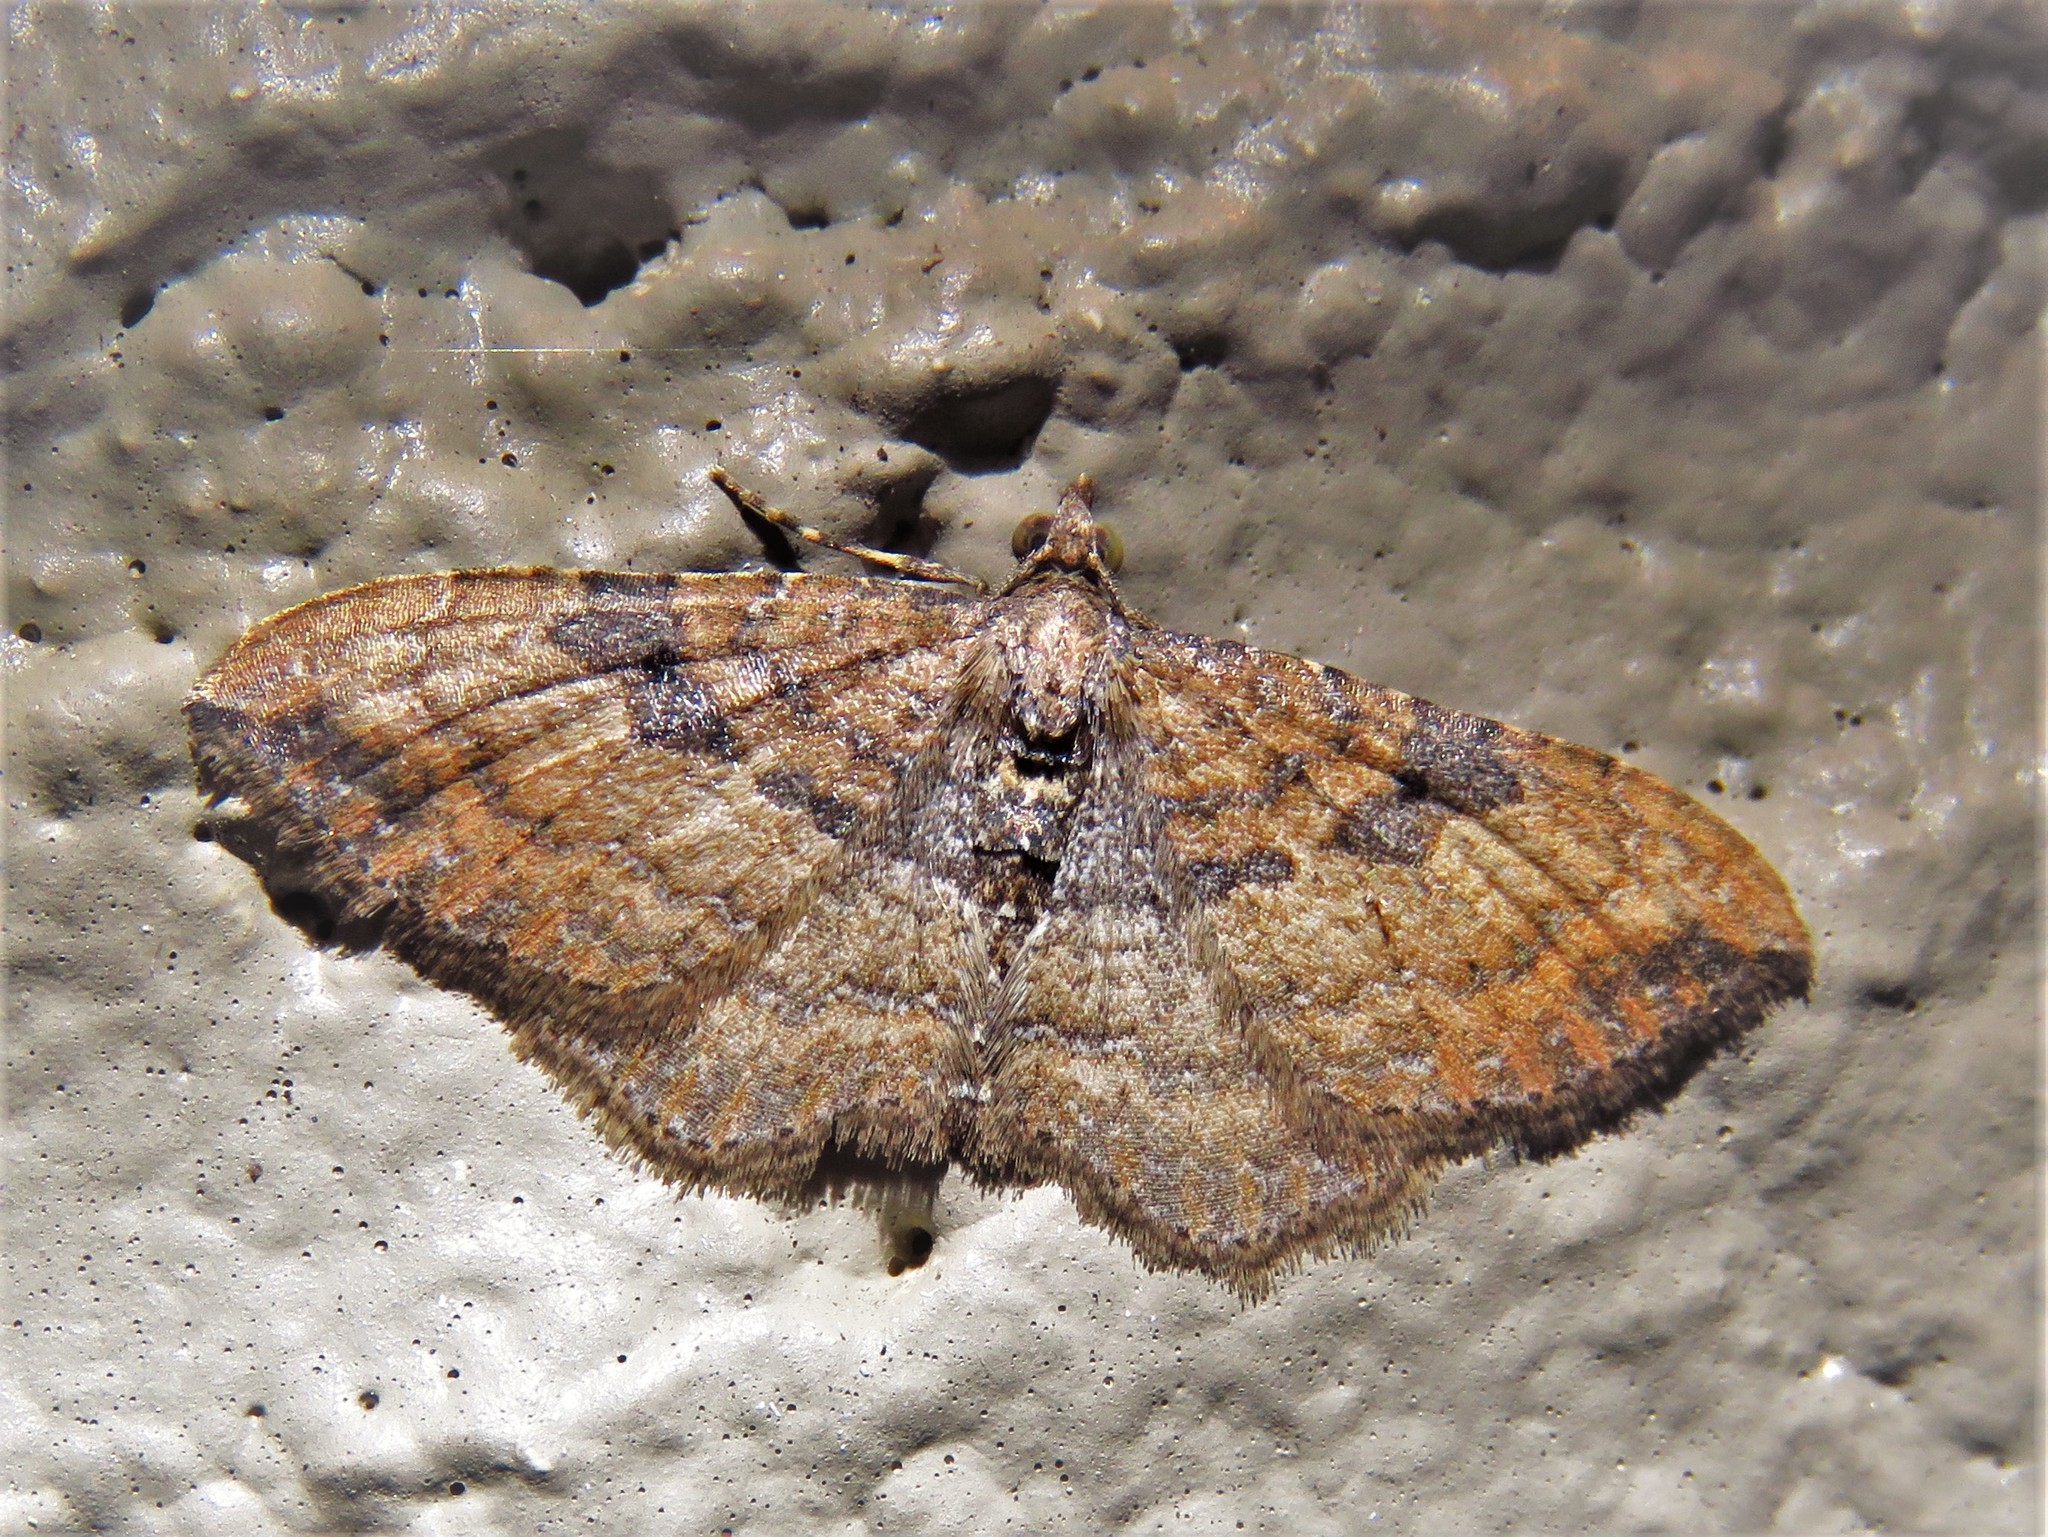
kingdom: Animalia
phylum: Arthropoda
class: Insecta
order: Lepidoptera
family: Geometridae
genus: Orthonama
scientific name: Orthonama obstipata
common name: The gem
